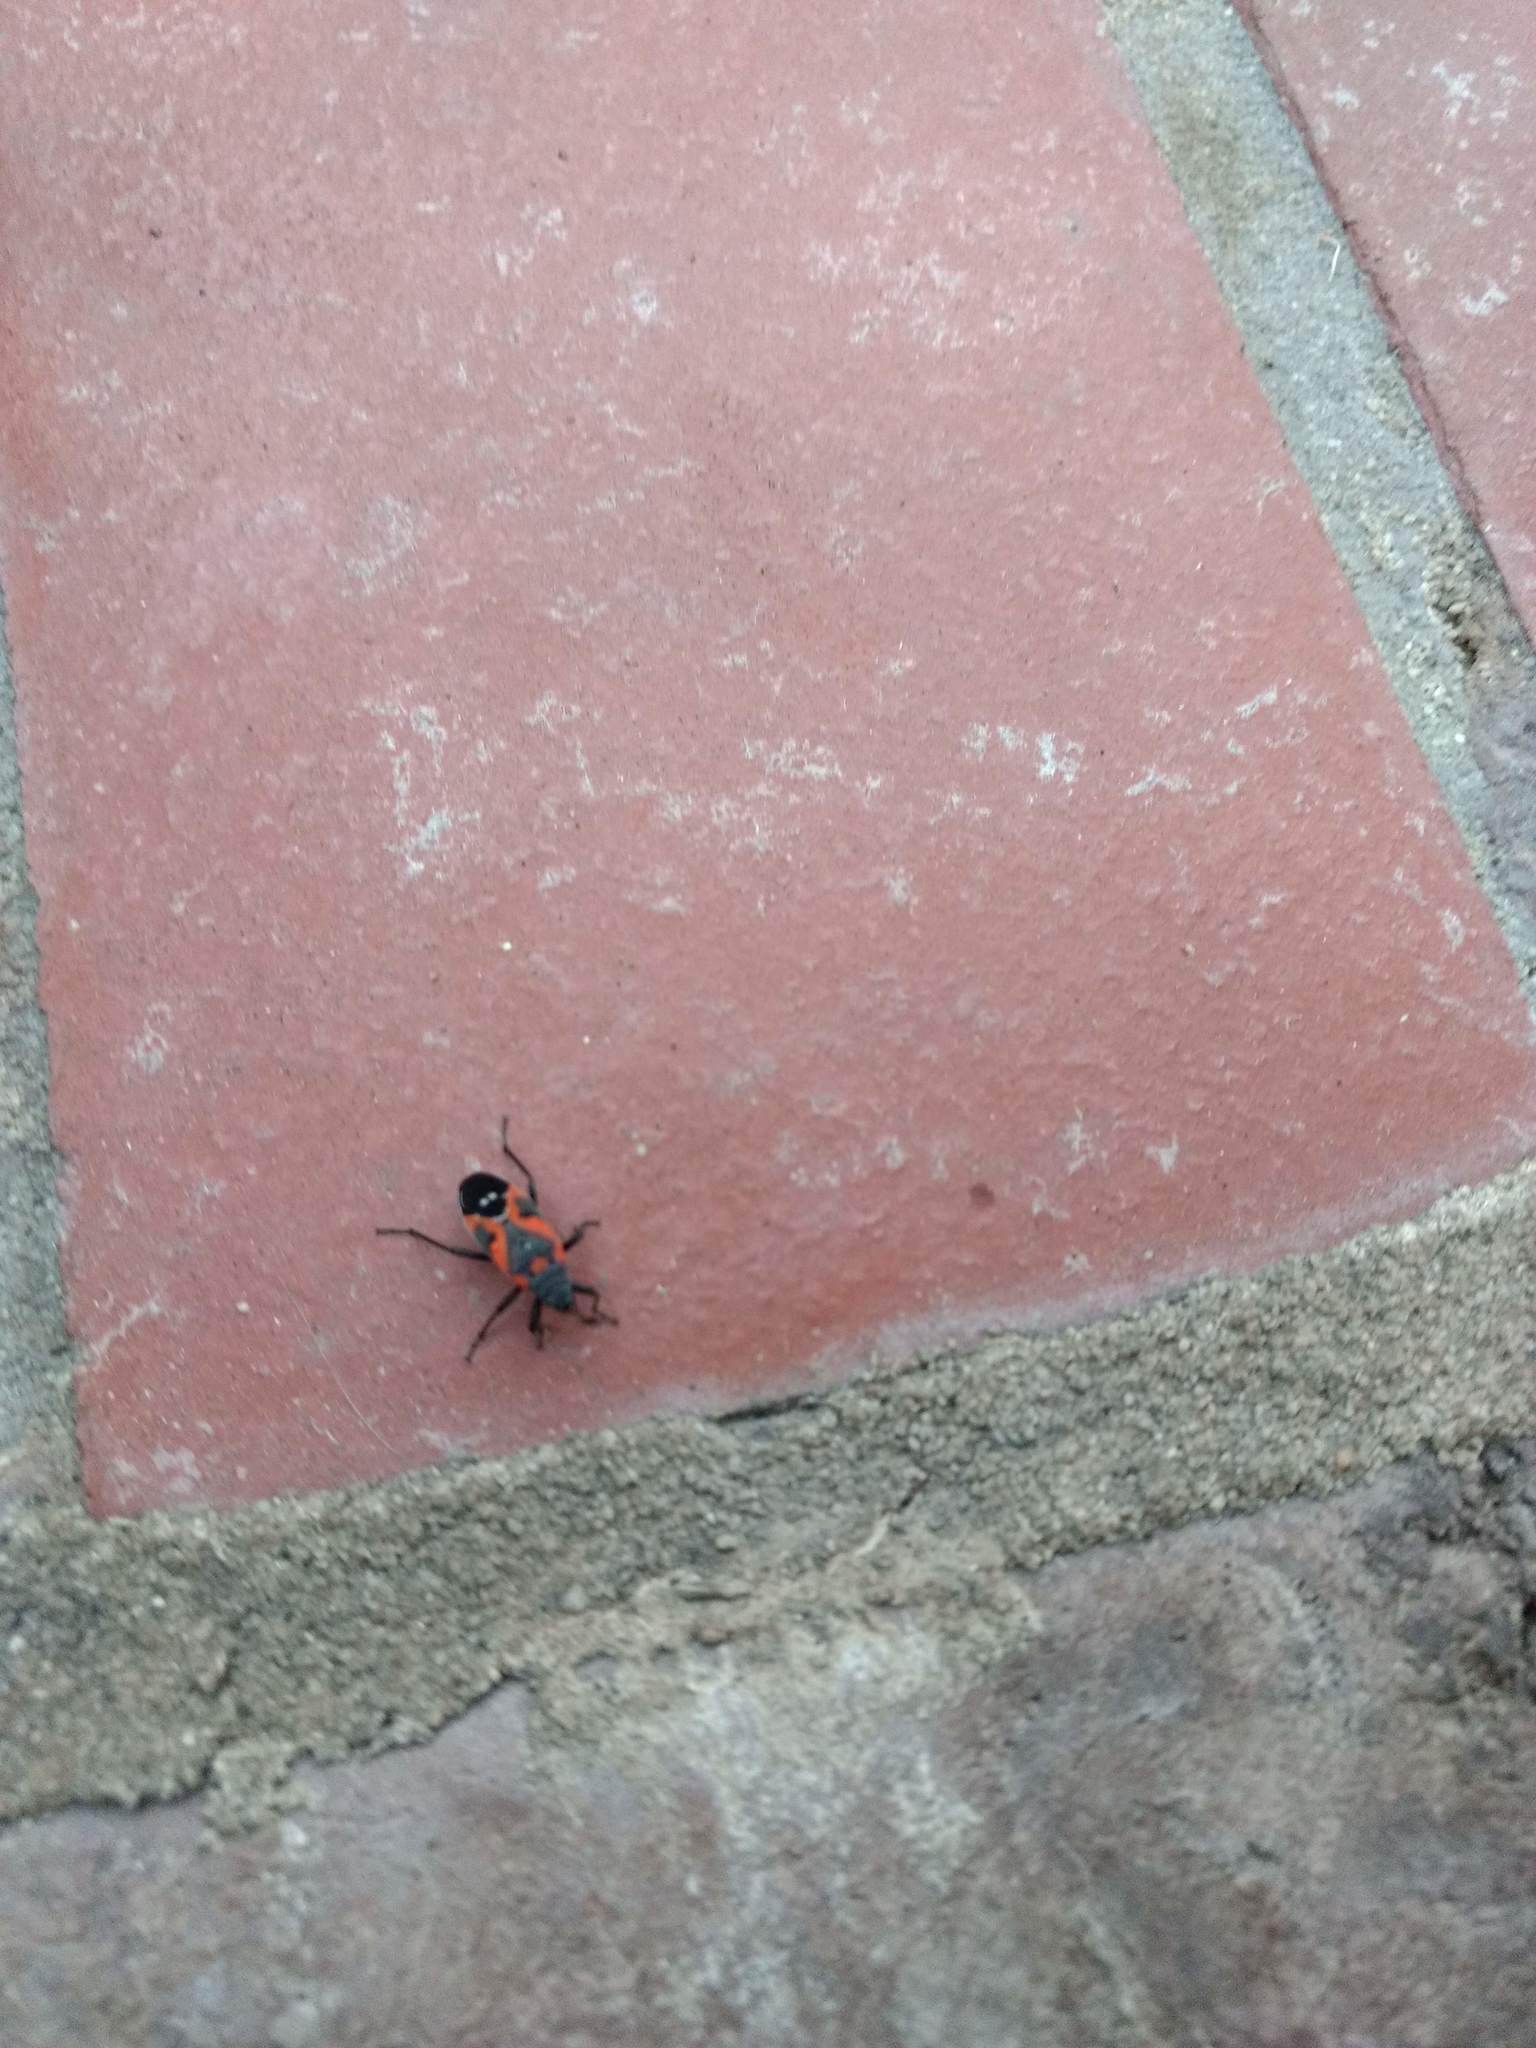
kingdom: Animalia
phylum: Arthropoda
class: Insecta
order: Hemiptera
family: Lygaeidae
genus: Lygaeus
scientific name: Lygaeus kalmii
